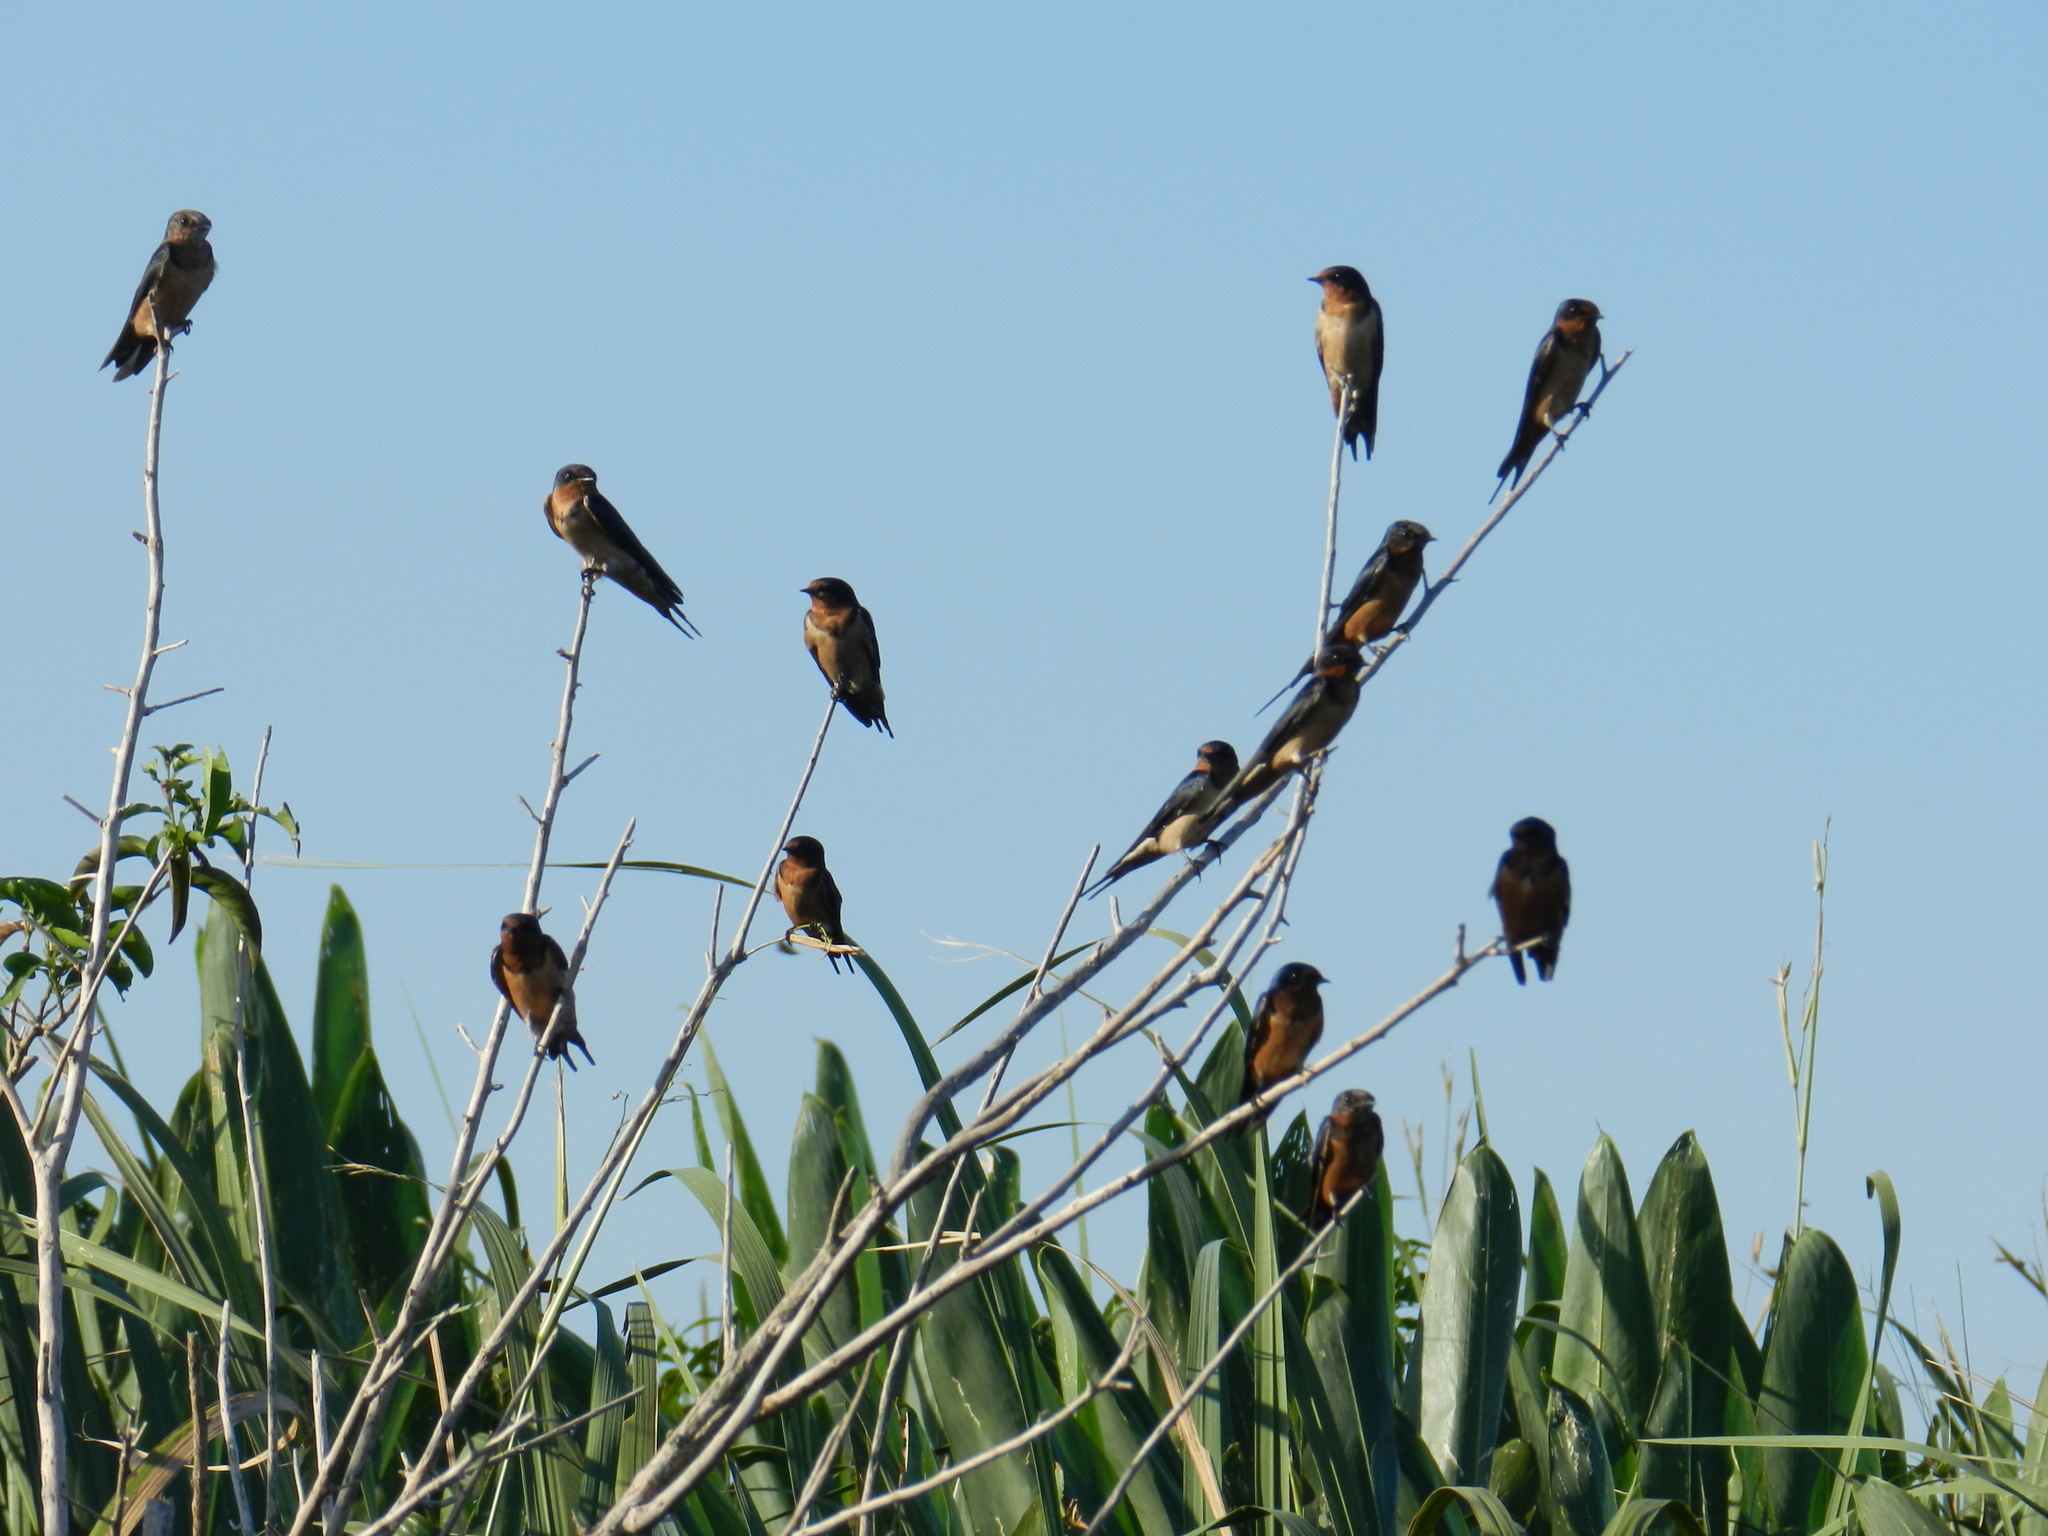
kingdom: Animalia
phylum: Chordata
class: Aves
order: Passeriformes
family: Hirundinidae
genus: Hirundo
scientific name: Hirundo rustica
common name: Barn swallow
